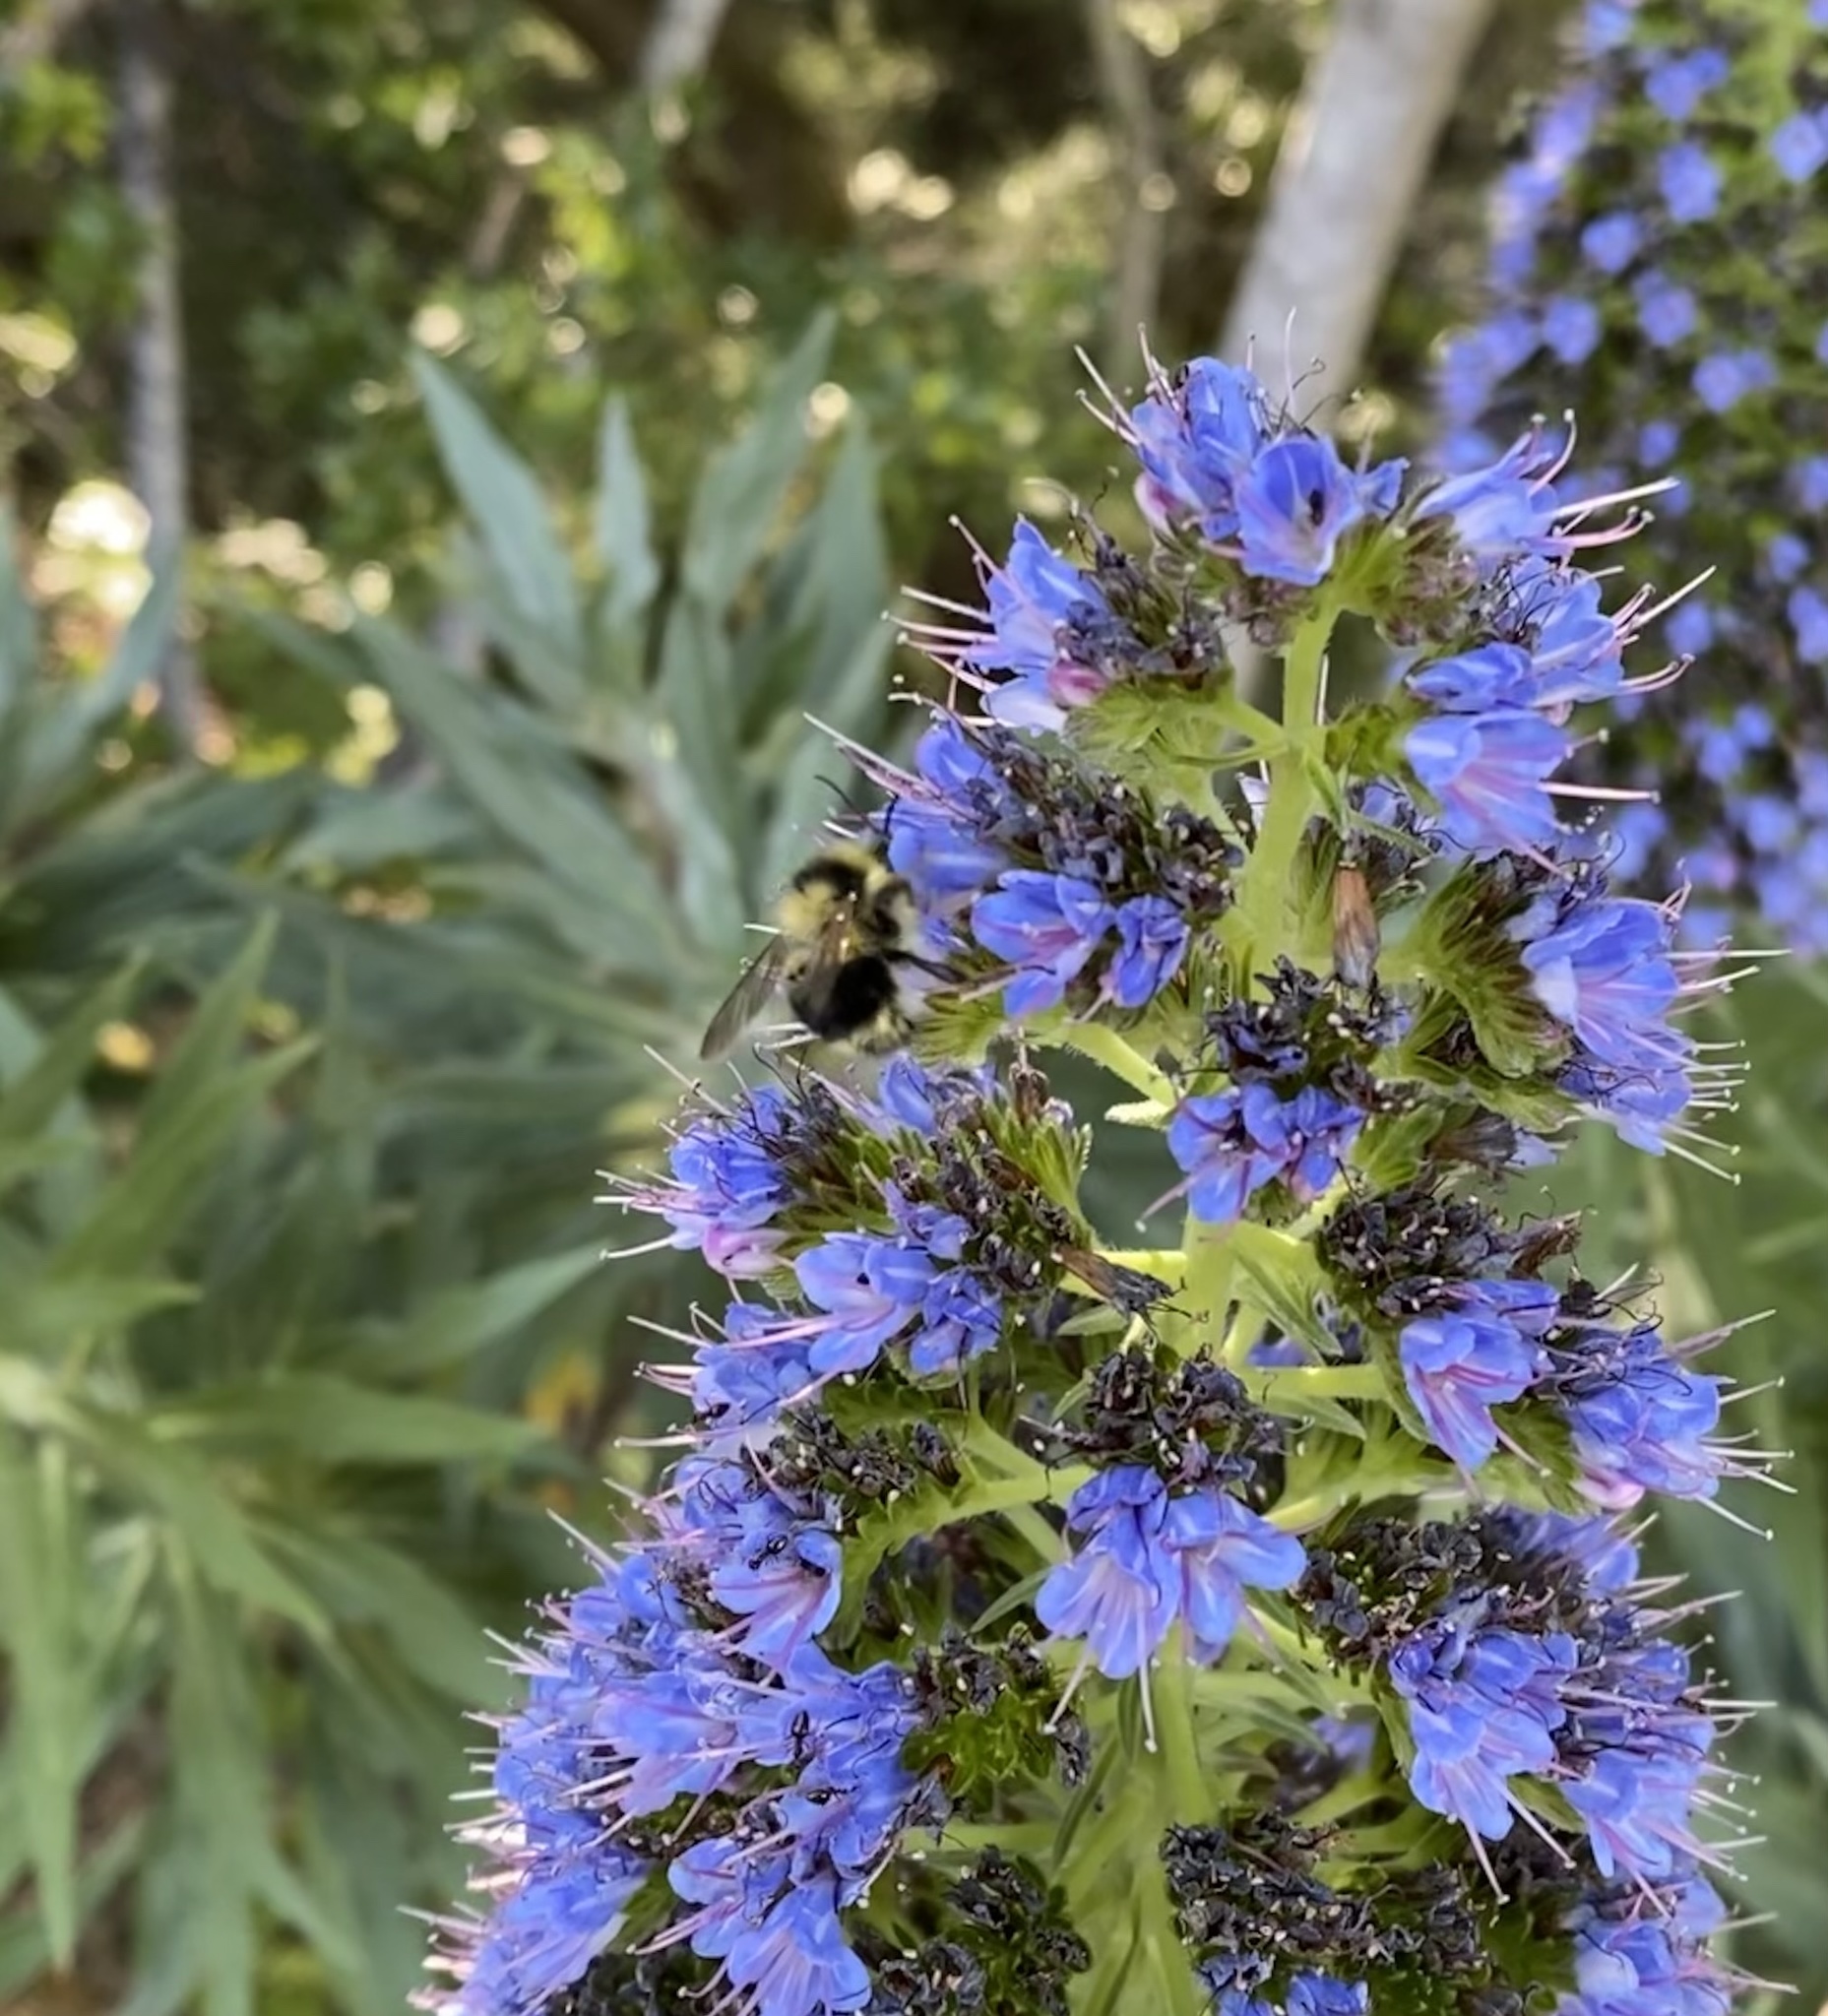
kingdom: Animalia
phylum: Arthropoda
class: Insecta
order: Hymenoptera
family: Apidae
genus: Bombus
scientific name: Bombus melanopygus
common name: Black tail bumble bee
